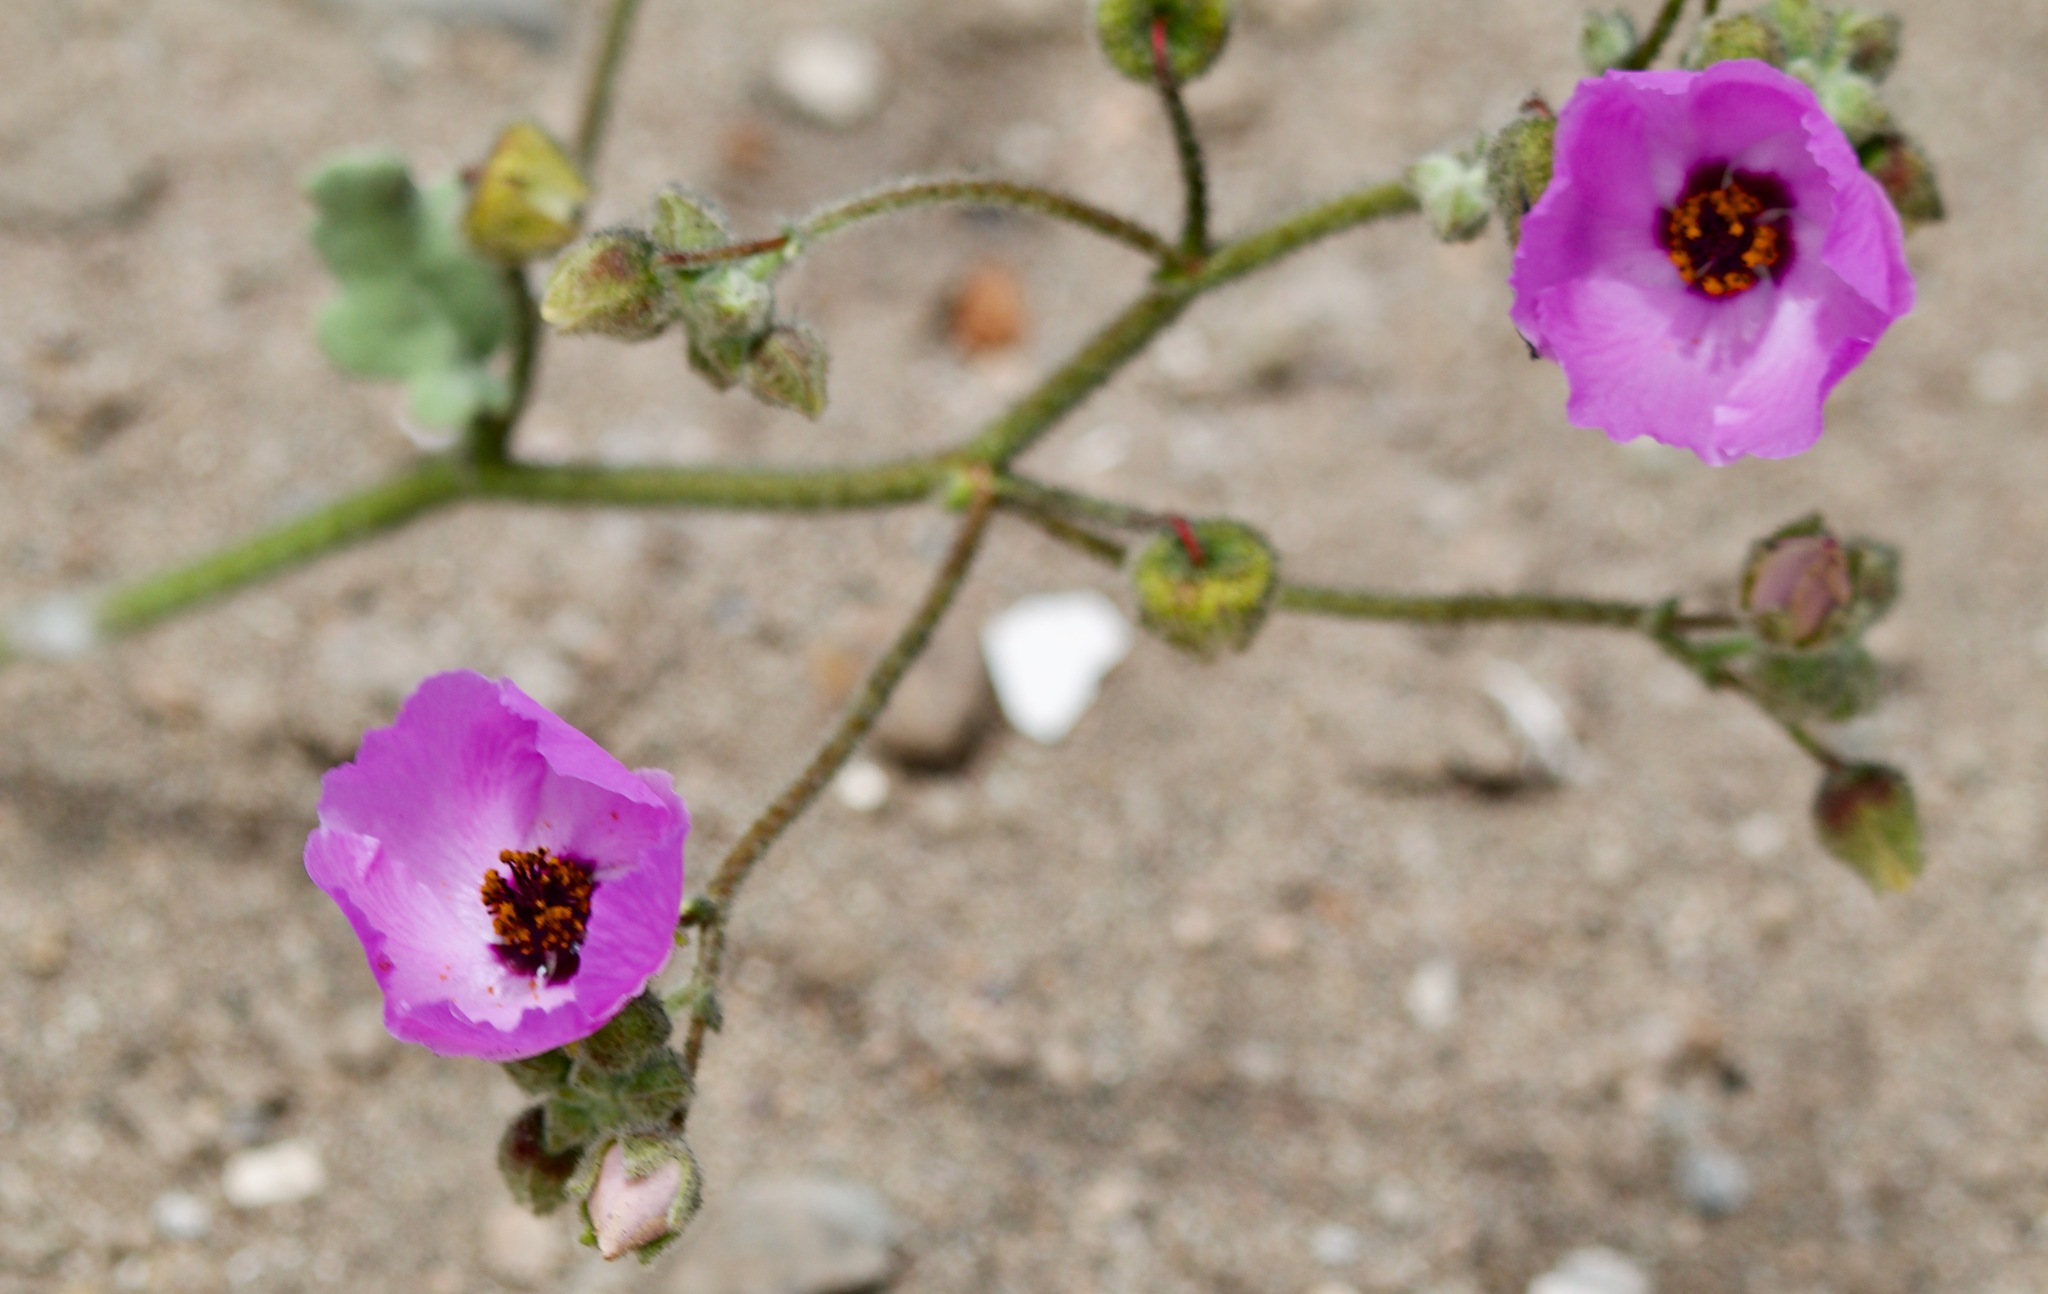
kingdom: Plantae
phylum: Tracheophyta
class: Magnoliopsida
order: Malvales
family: Malvaceae
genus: Cristaria
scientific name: Cristaria glaucophylla
